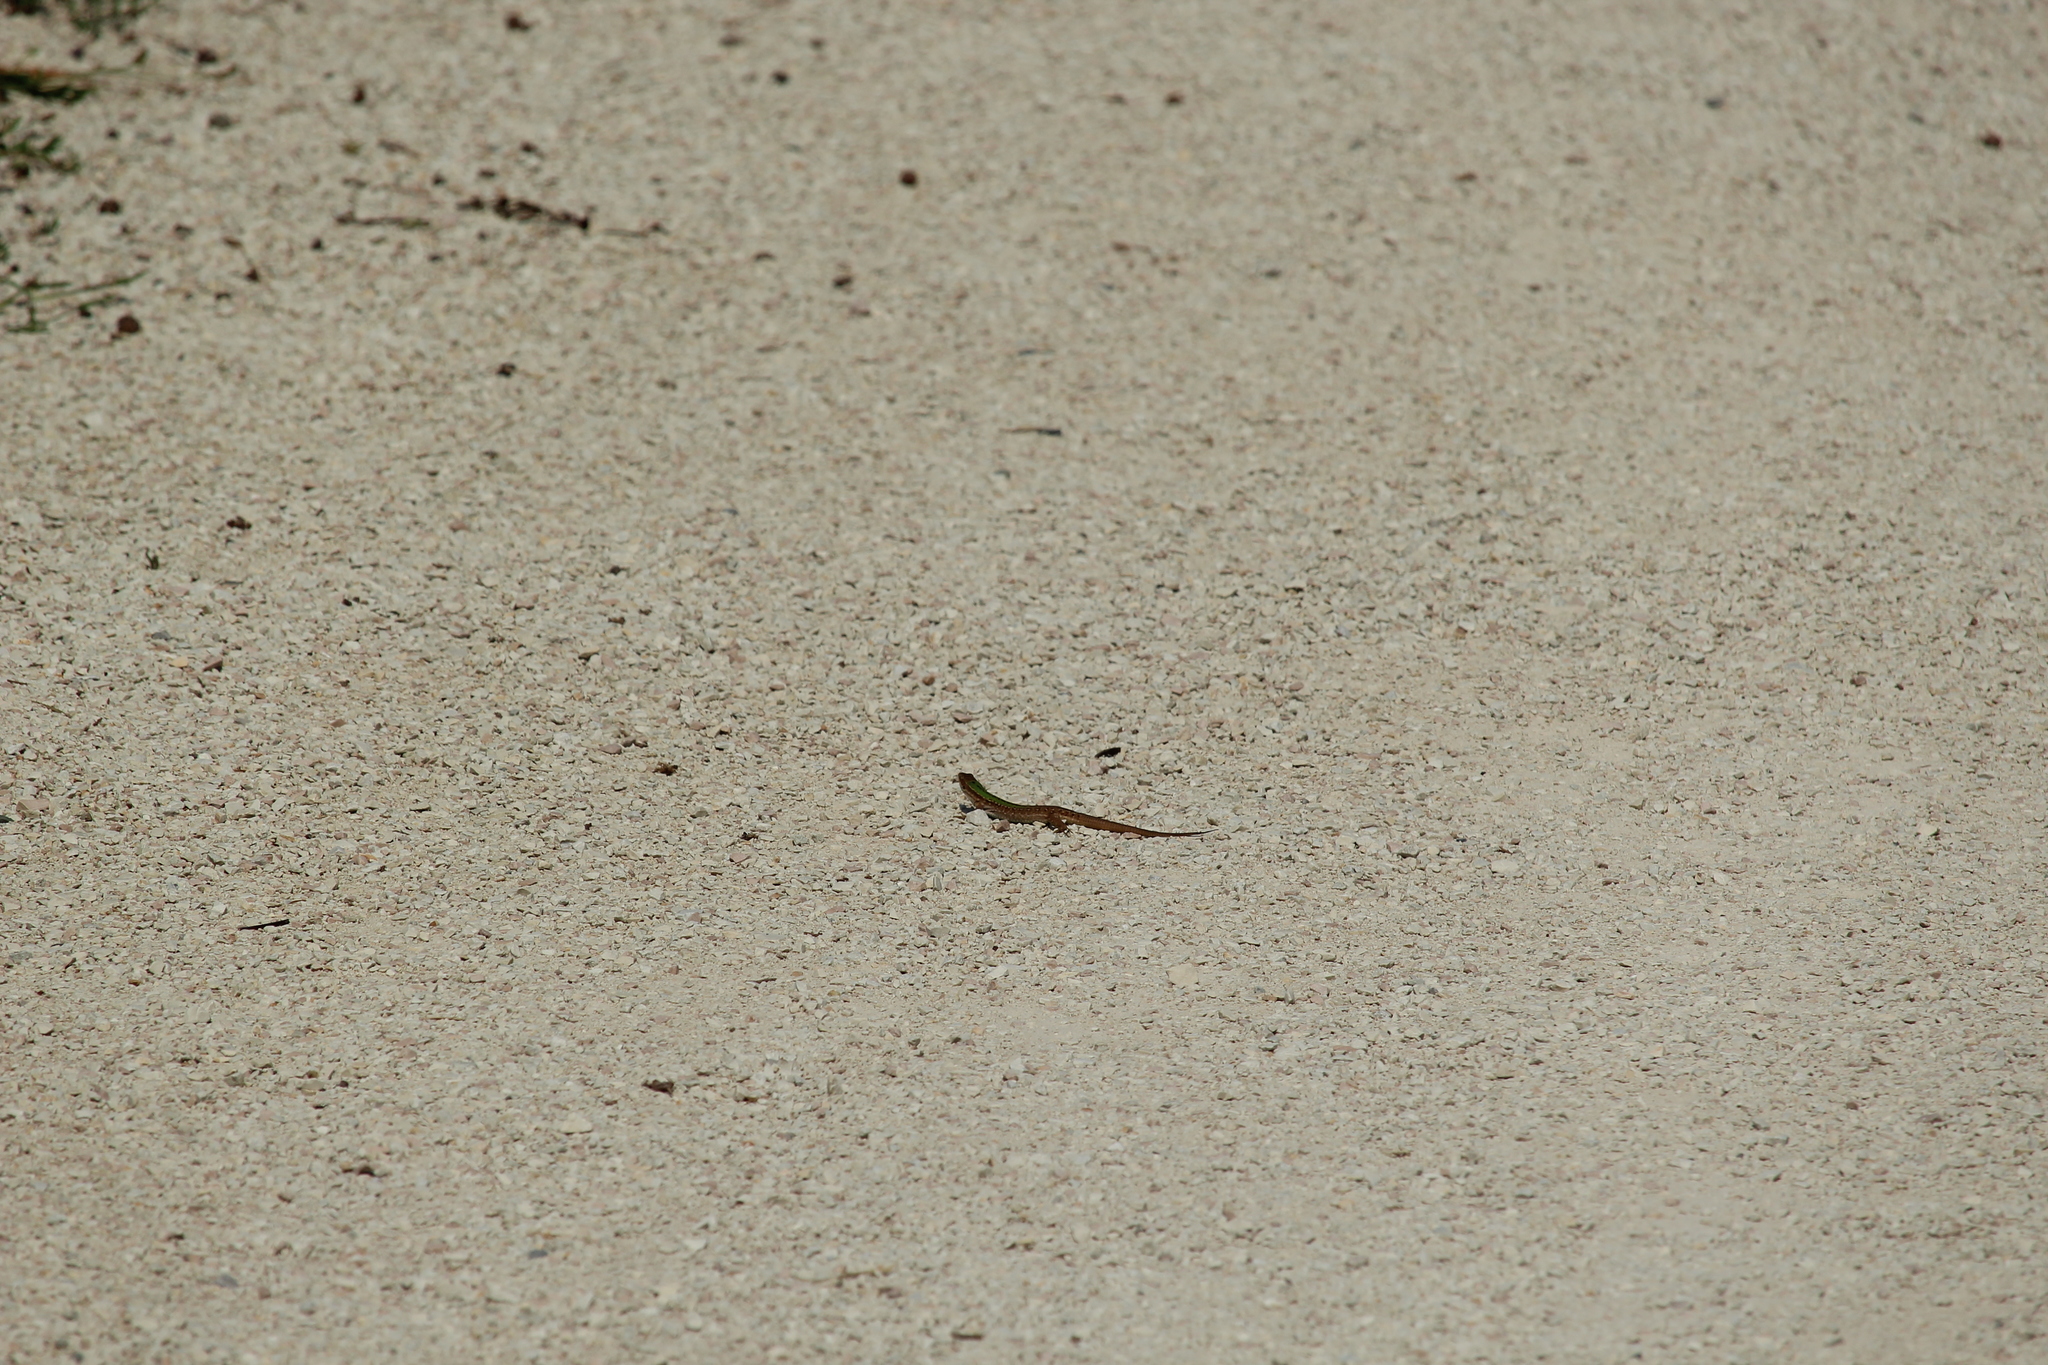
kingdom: Animalia
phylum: Chordata
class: Squamata
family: Lacertidae
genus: Podarcis
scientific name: Podarcis siculus
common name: Italian wall lizard
